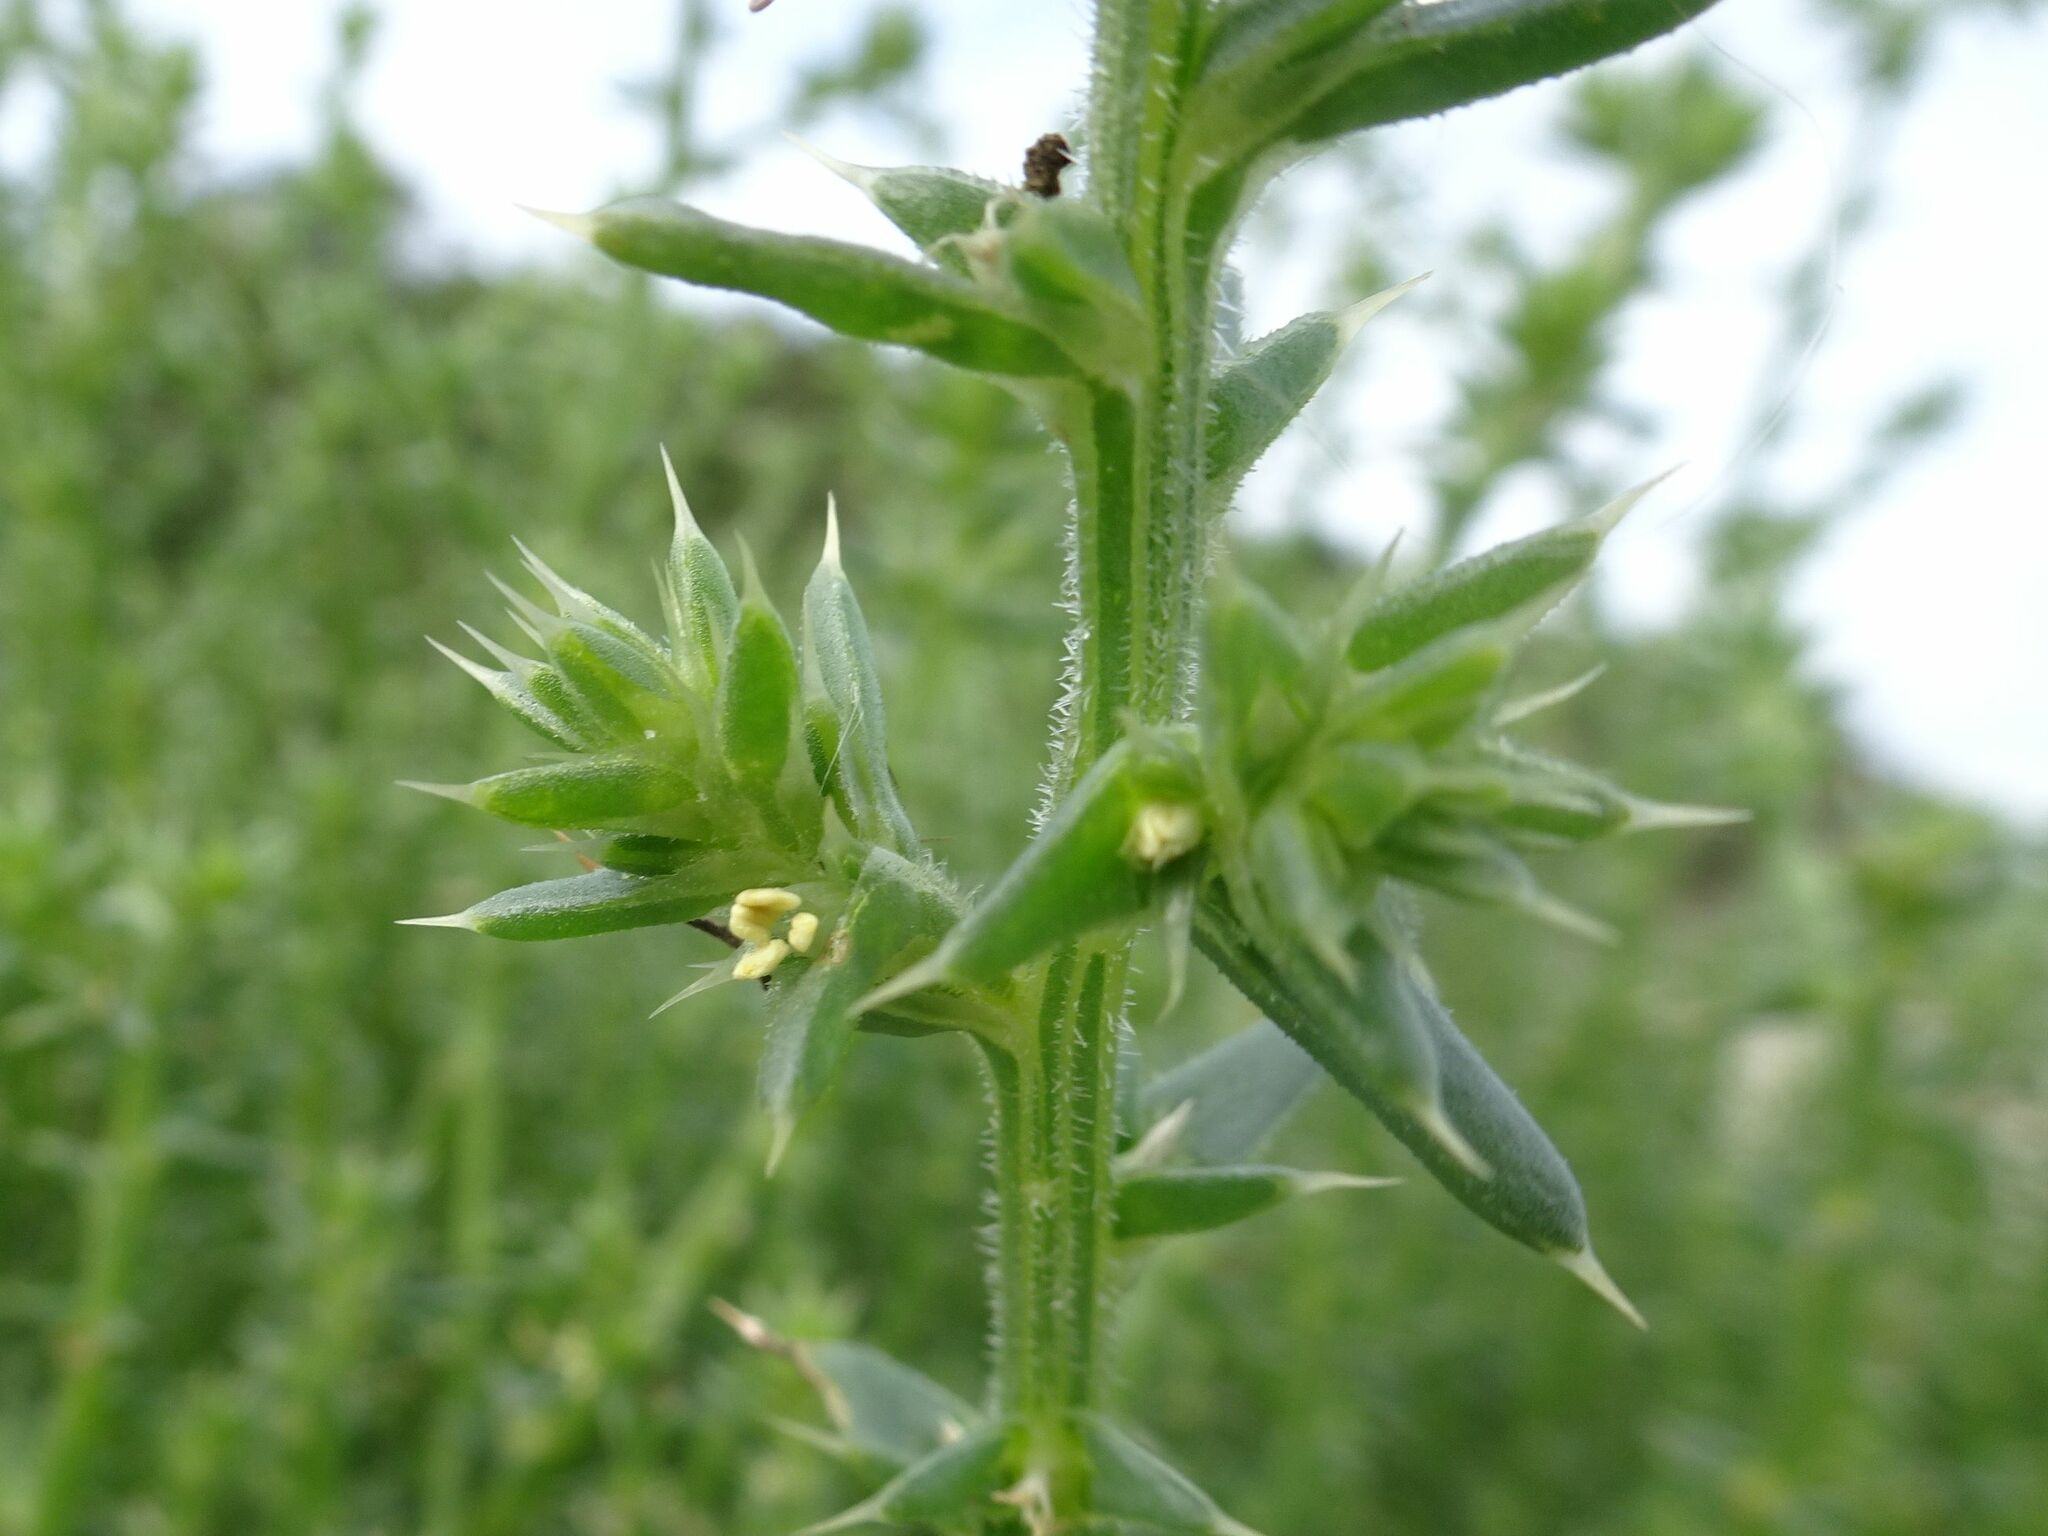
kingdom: Plantae
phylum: Tracheophyta
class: Magnoliopsida
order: Caryophyllales
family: Amaranthaceae
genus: Salsola
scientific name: Salsola kali
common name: Saltwort
